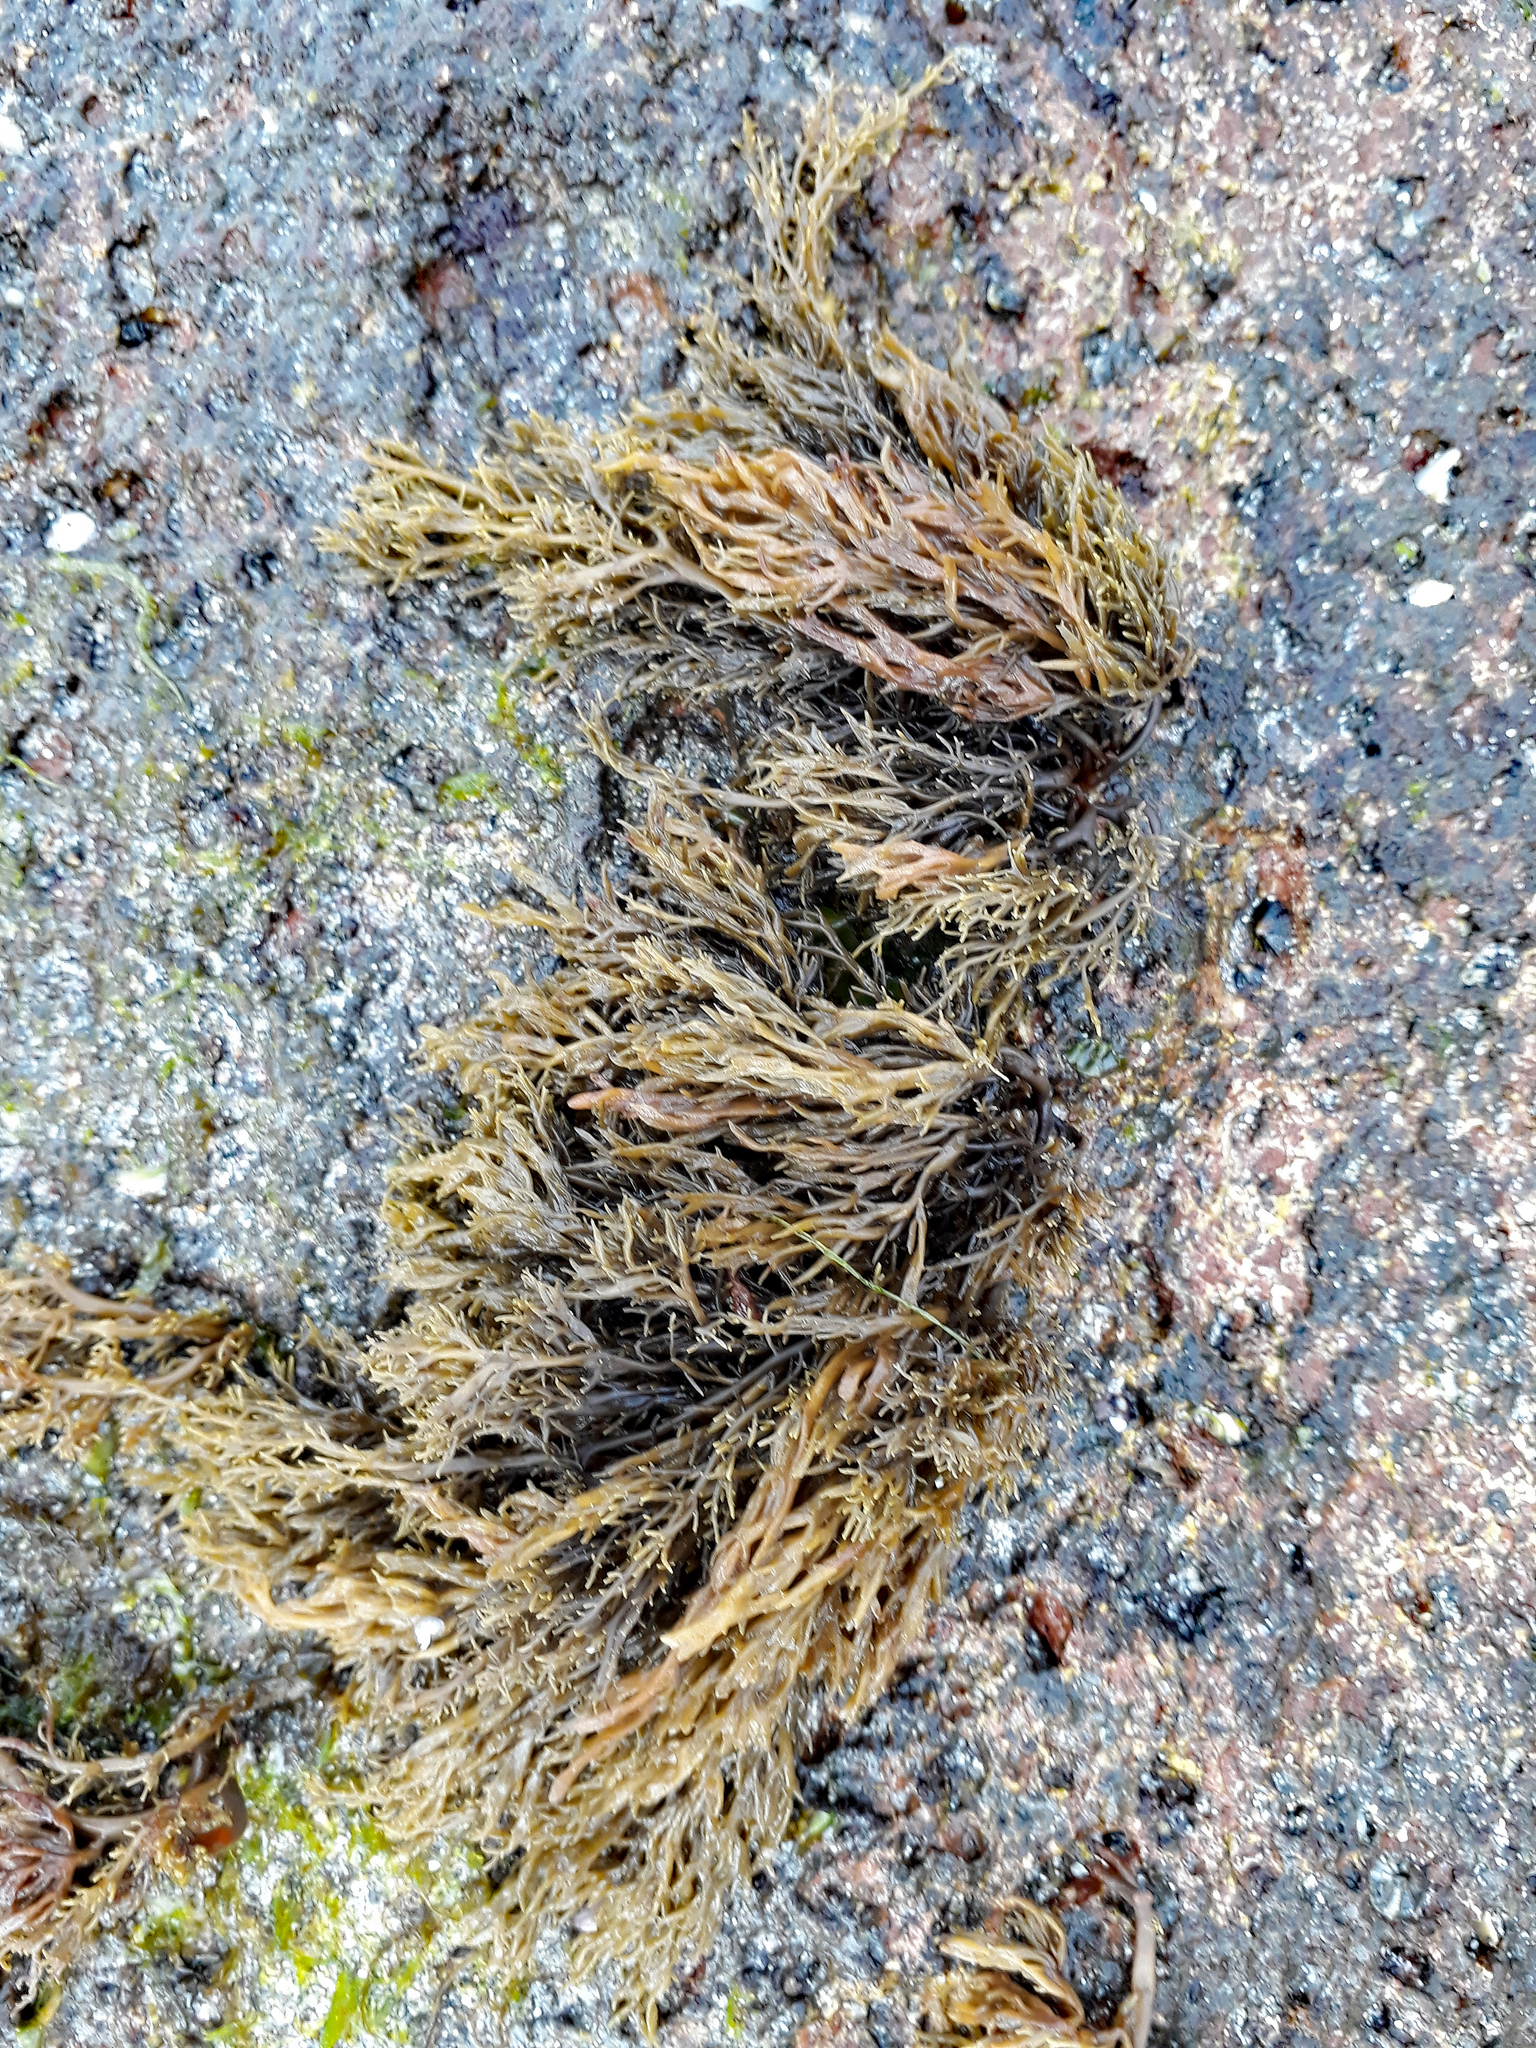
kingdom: Chromista
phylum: Ochrophyta
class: Phaeophyceae
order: Scytothamnales
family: Scytothamnaceae
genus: Scytothamnus
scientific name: Scytothamnus australis
